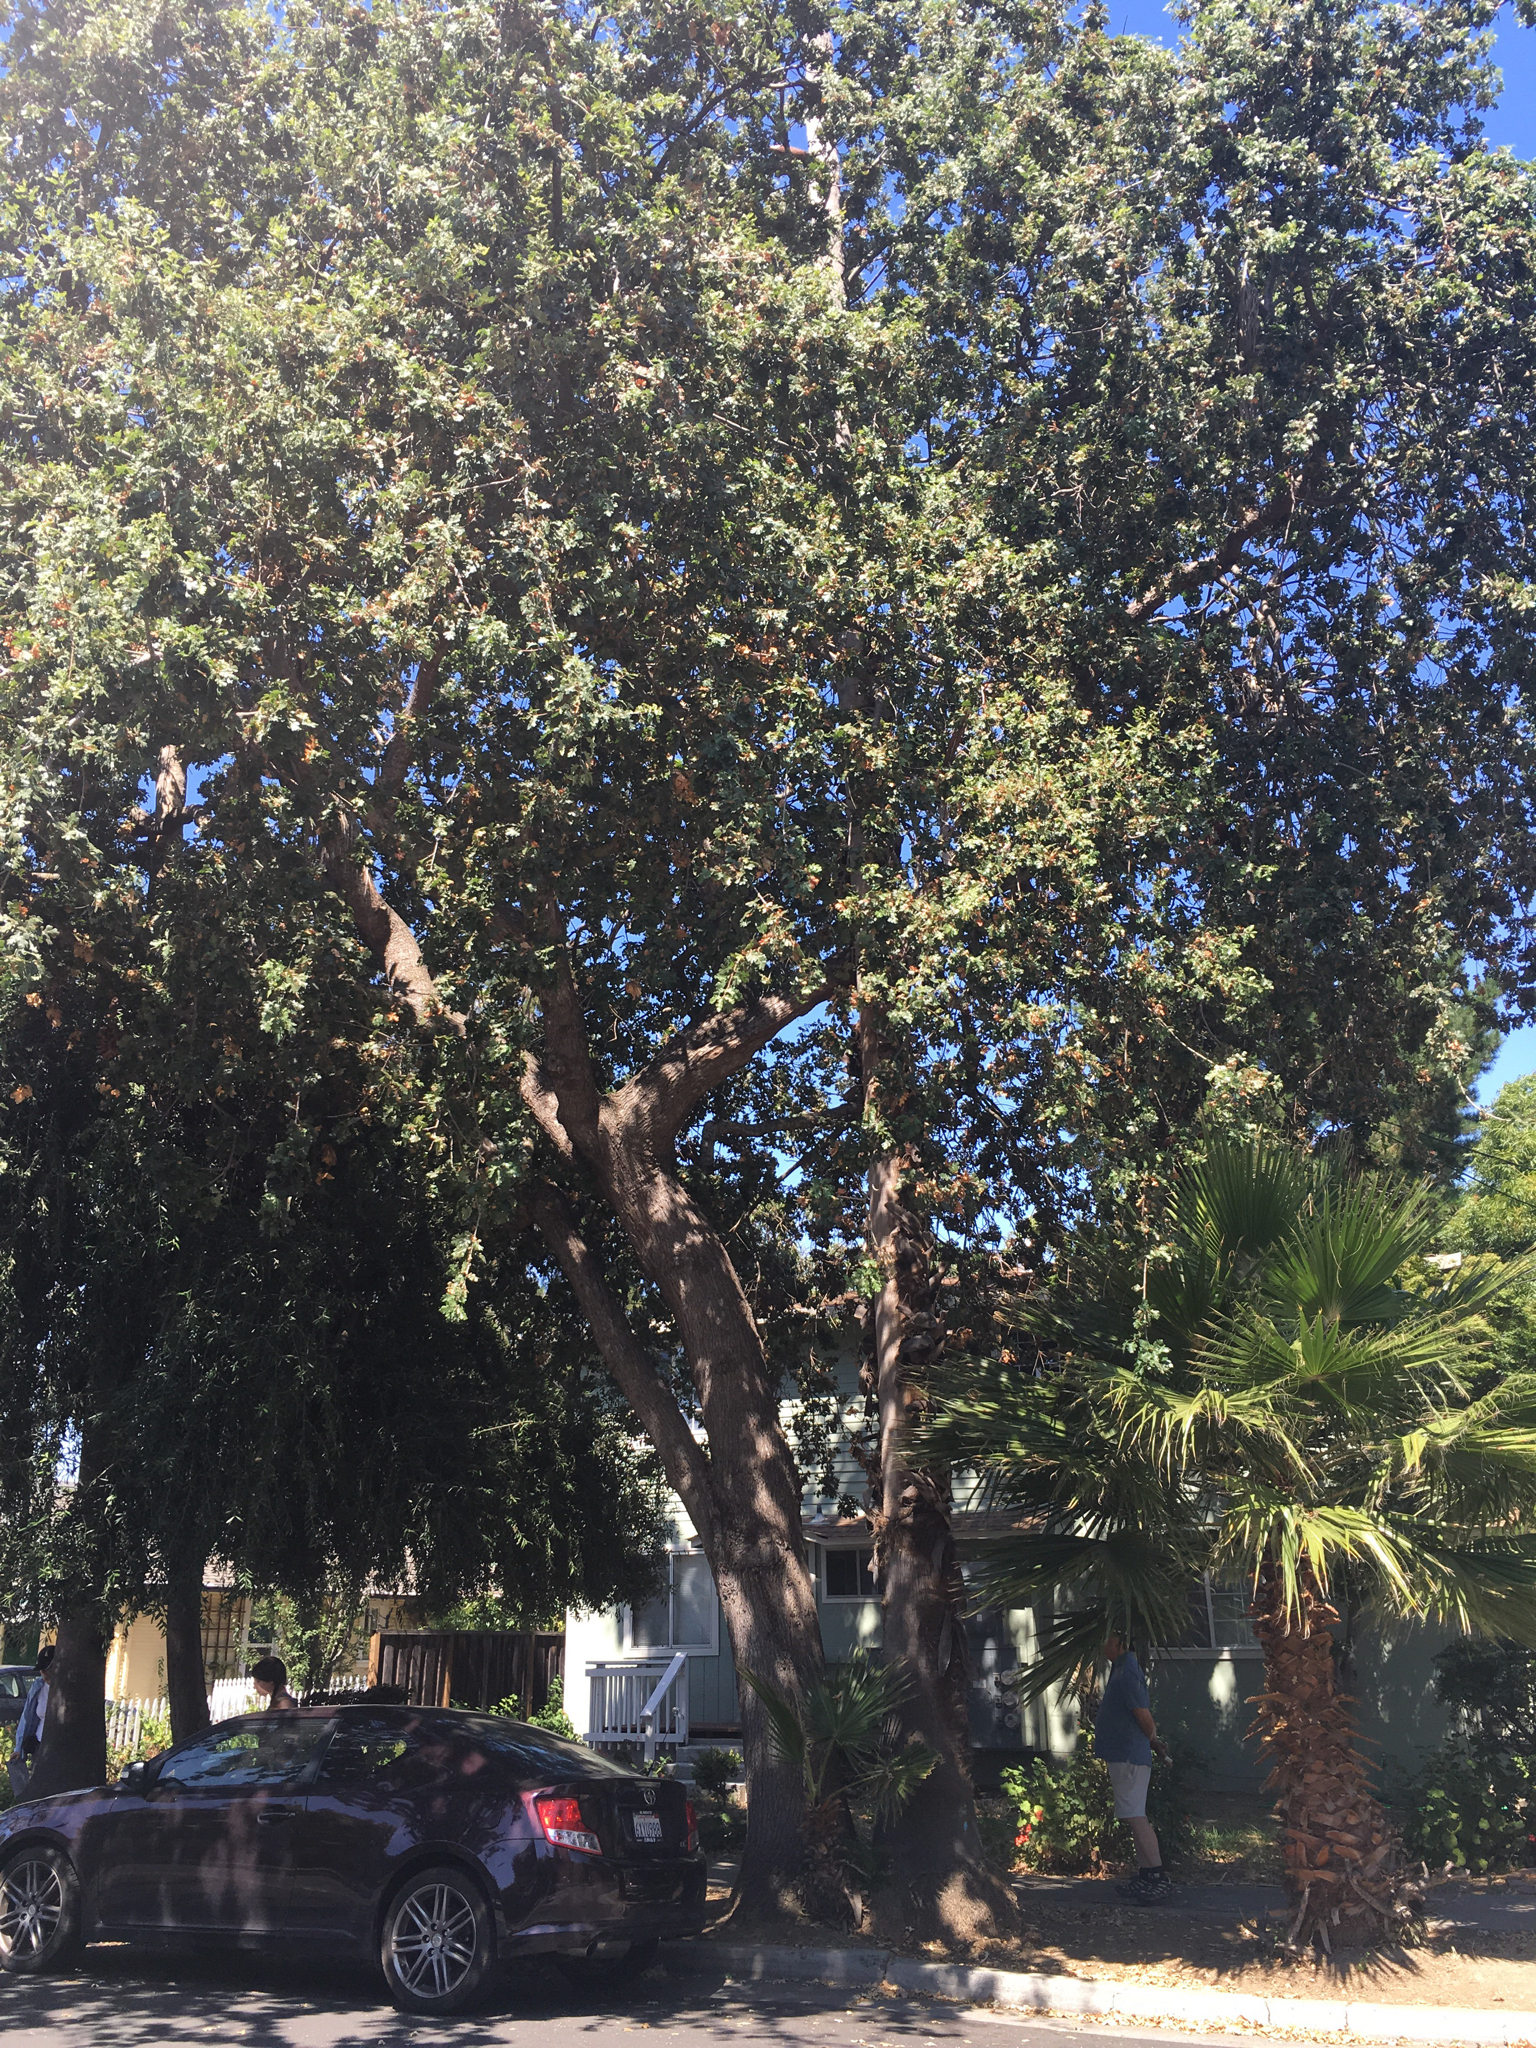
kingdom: Plantae
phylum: Tracheophyta
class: Magnoliopsida
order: Fagales
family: Fagaceae
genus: Quercus
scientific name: Quercus lobata
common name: Valley oak
